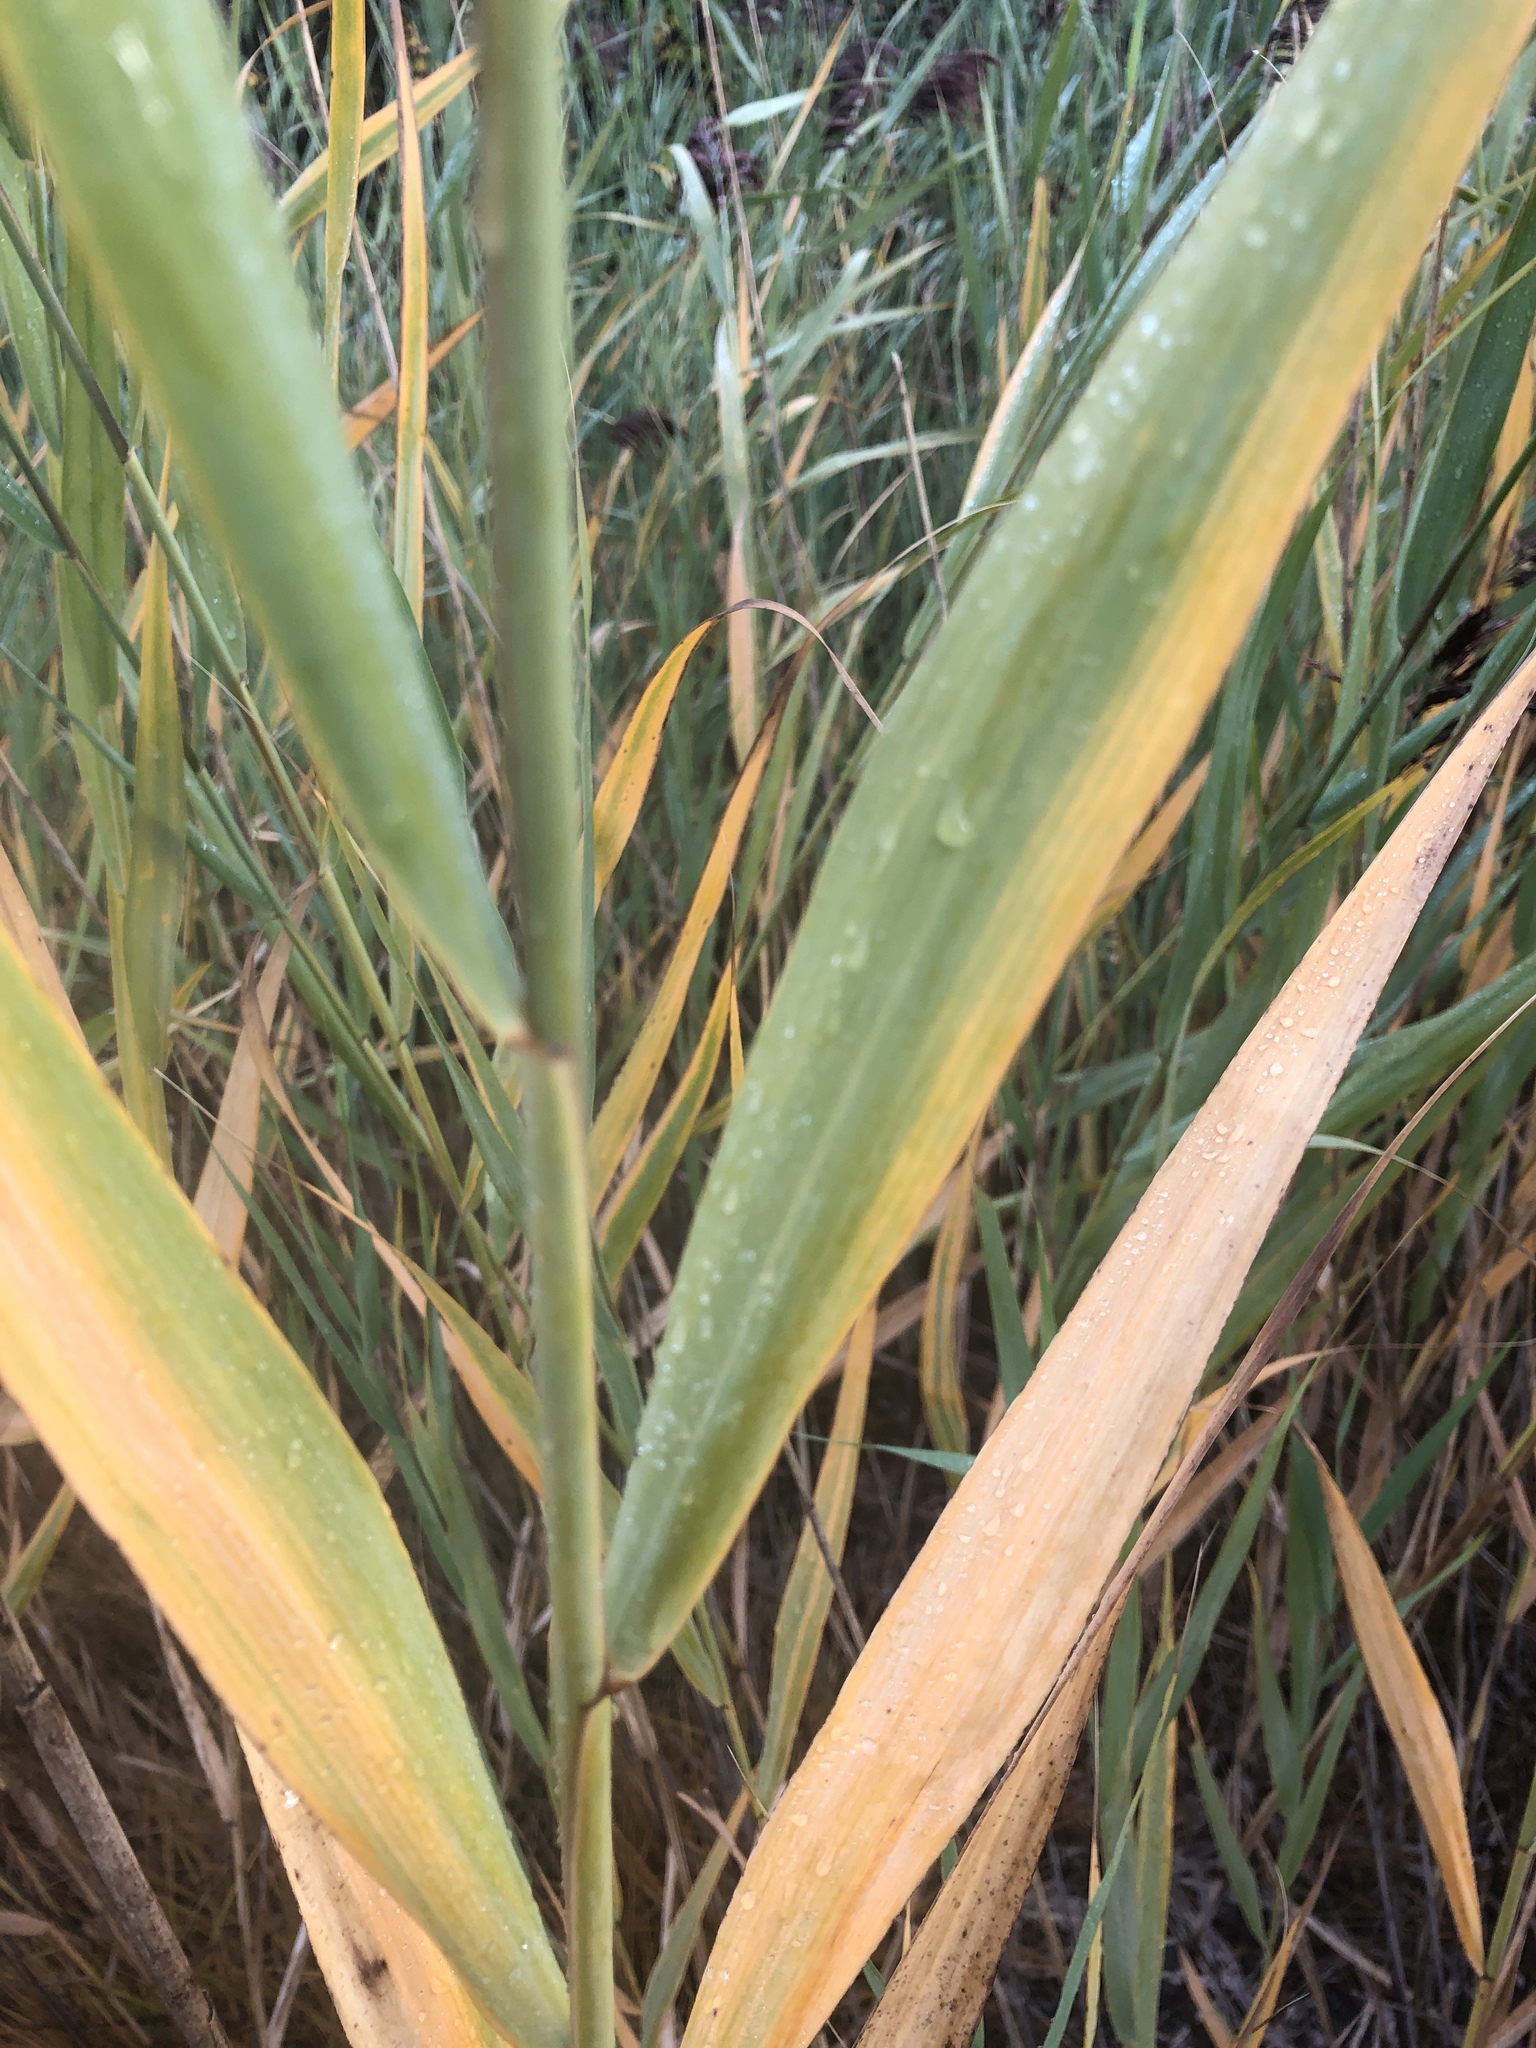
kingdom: Plantae
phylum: Tracheophyta
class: Liliopsida
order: Poales
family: Poaceae
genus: Phragmites
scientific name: Phragmites australis
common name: Common reed
